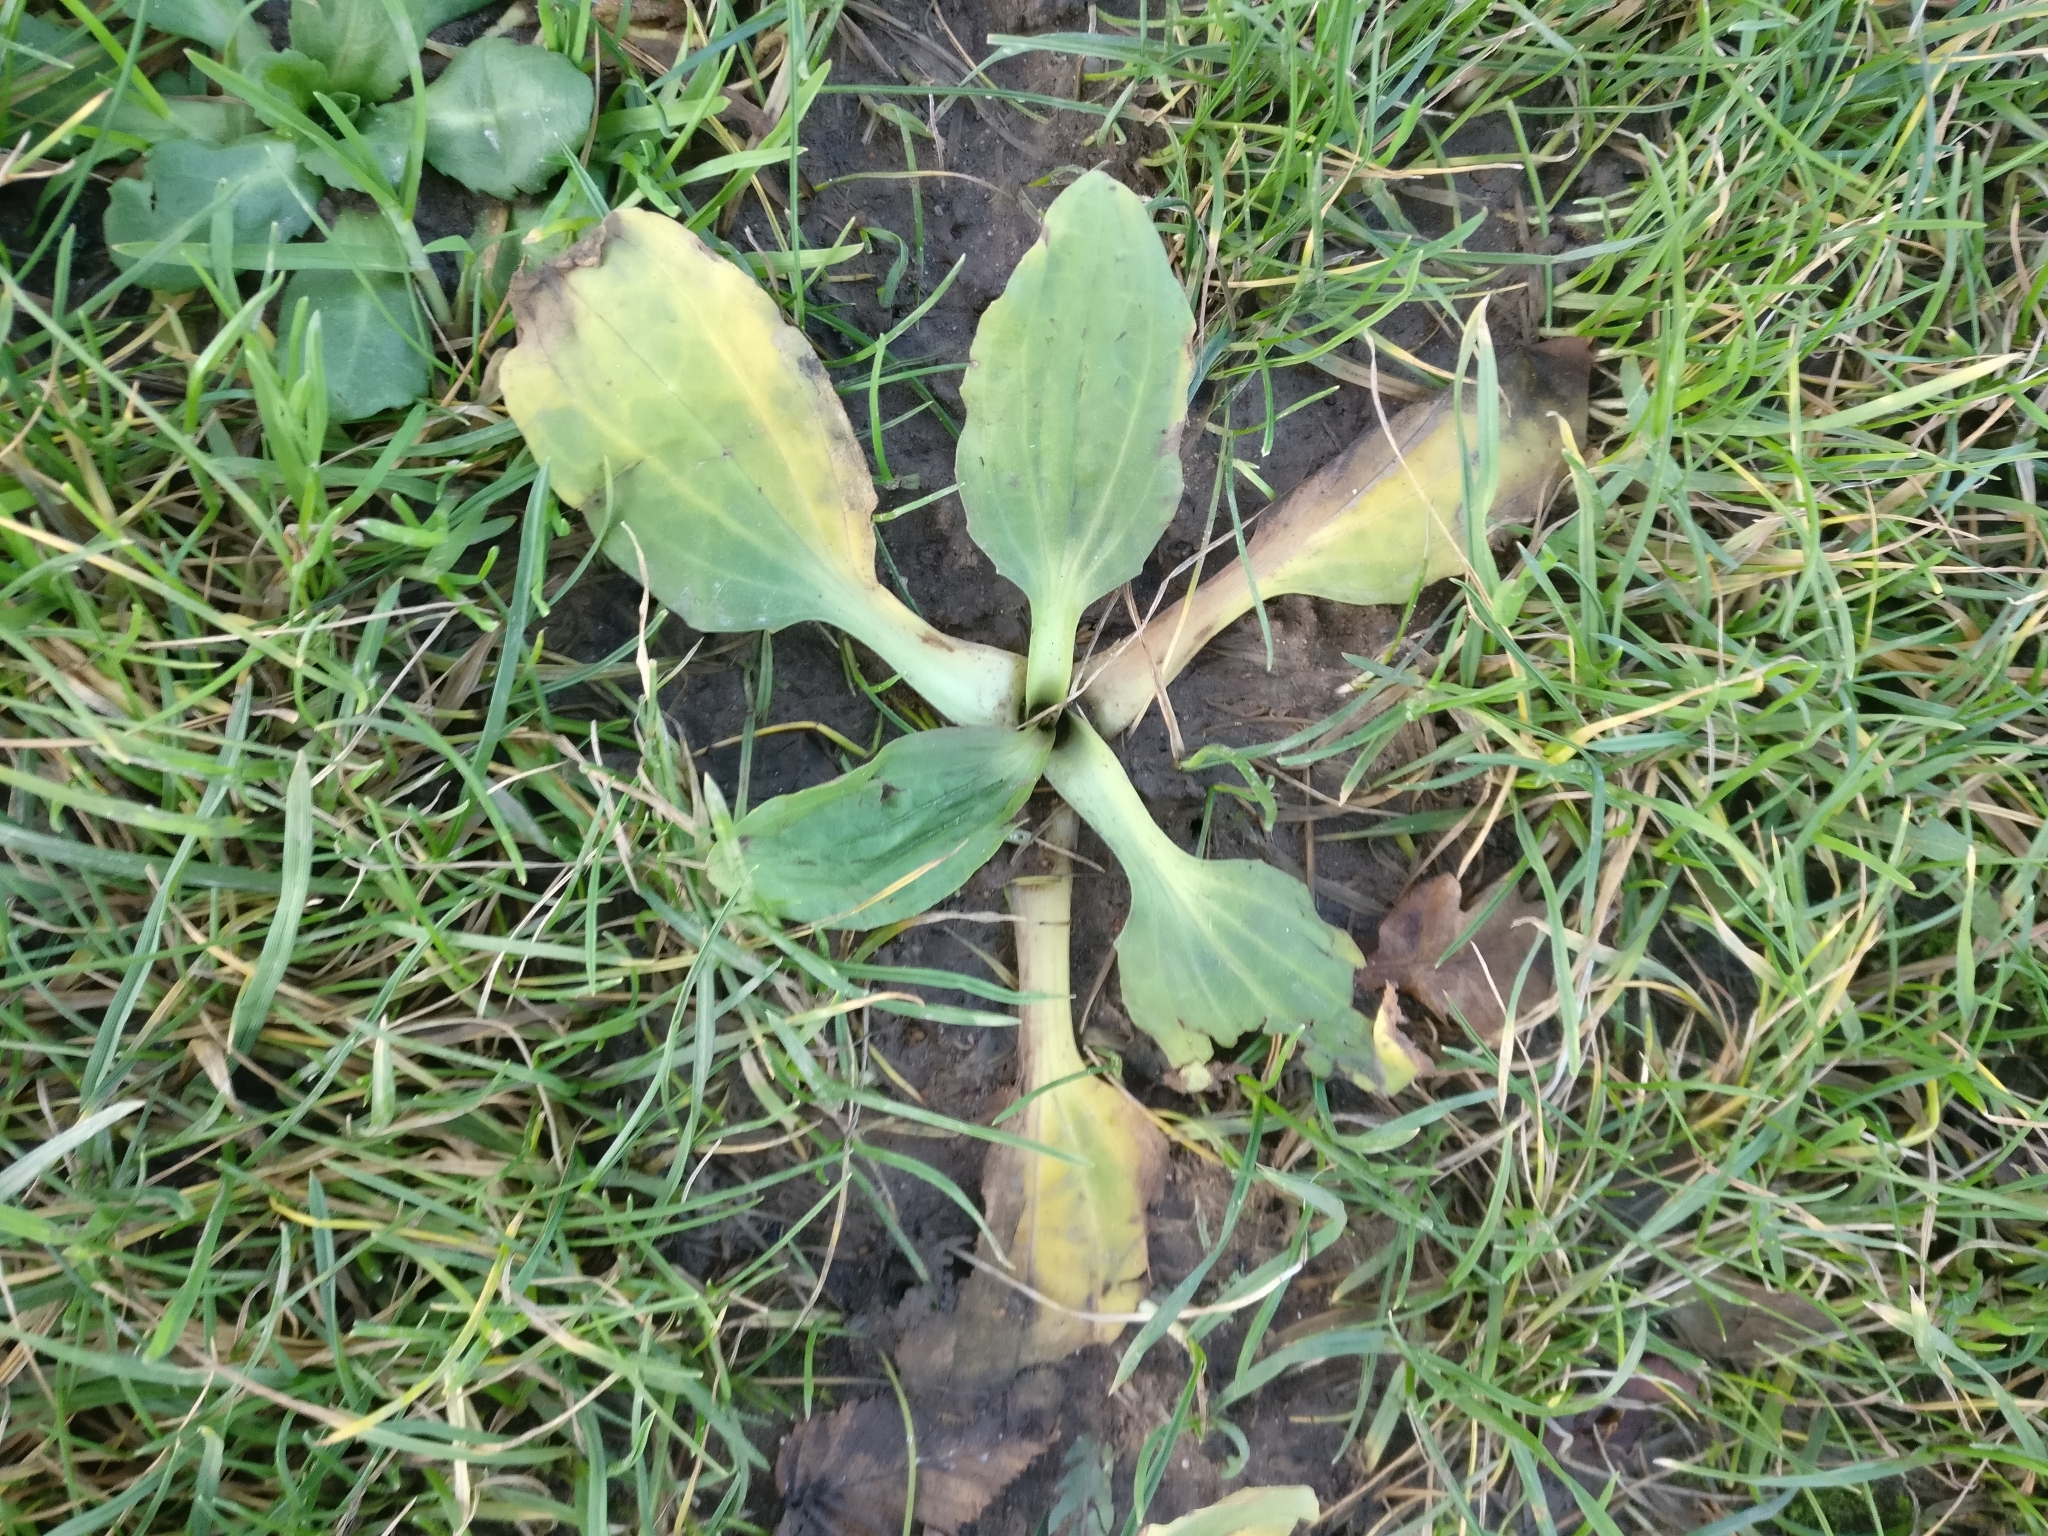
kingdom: Plantae
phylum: Tracheophyta
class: Magnoliopsida
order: Lamiales
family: Plantaginaceae
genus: Plantago
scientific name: Plantago major
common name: Common plantain
